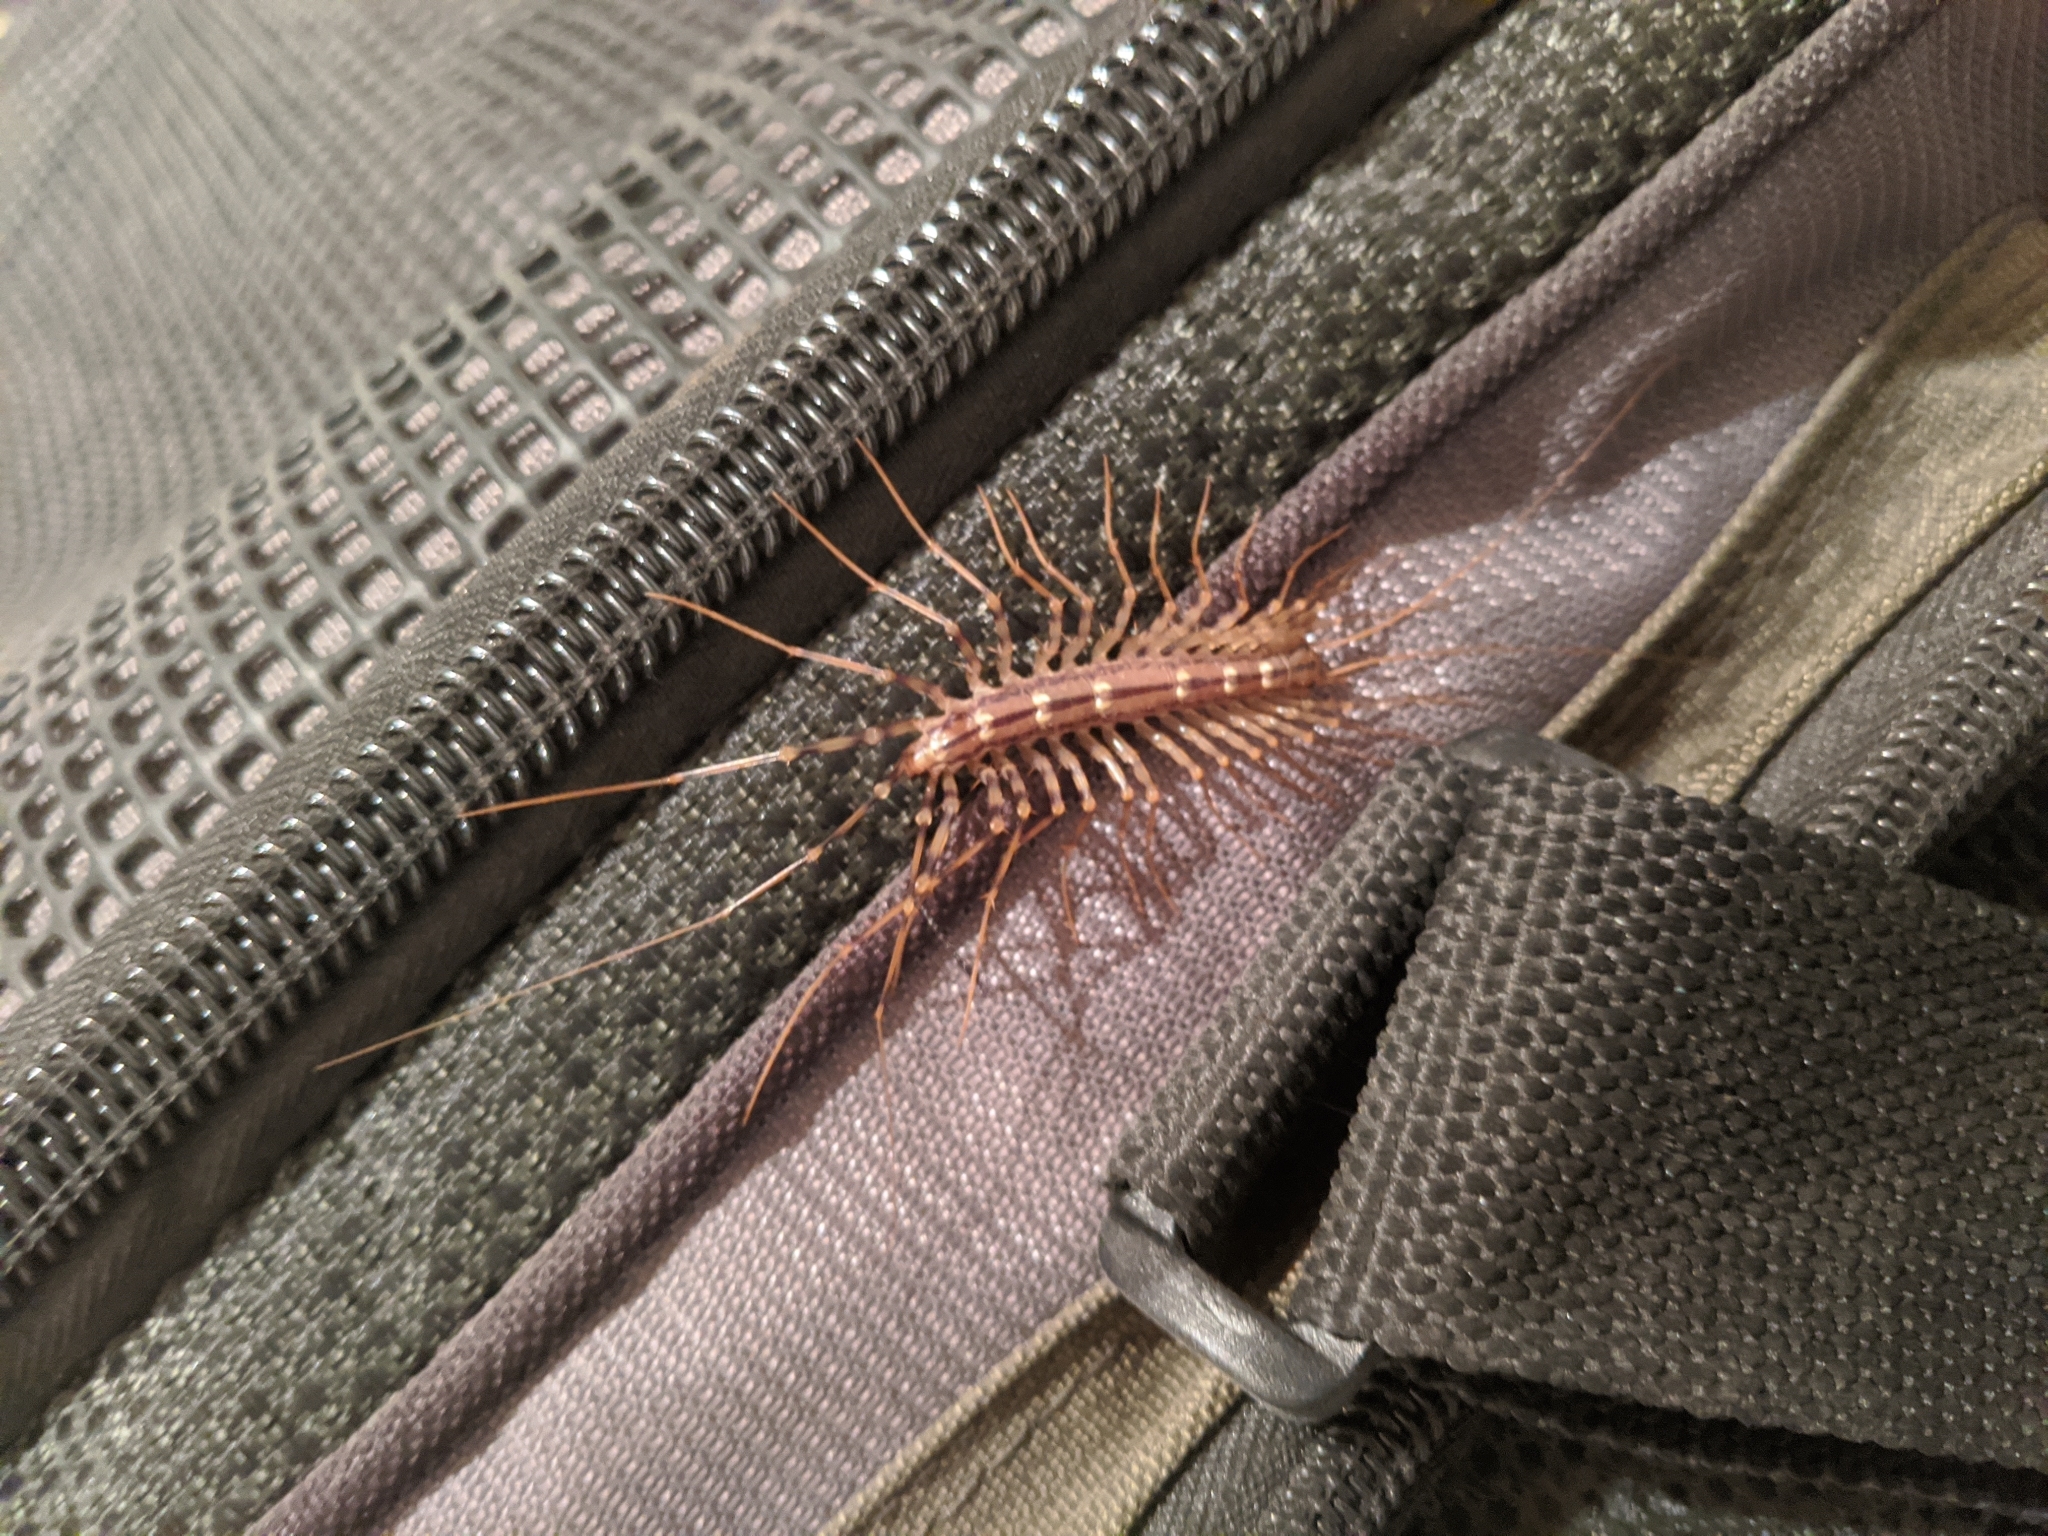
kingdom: Animalia
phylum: Arthropoda
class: Chilopoda
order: Scutigeromorpha
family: Scutigeridae
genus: Scutigera
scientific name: Scutigera coleoptrata
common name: House centipede
